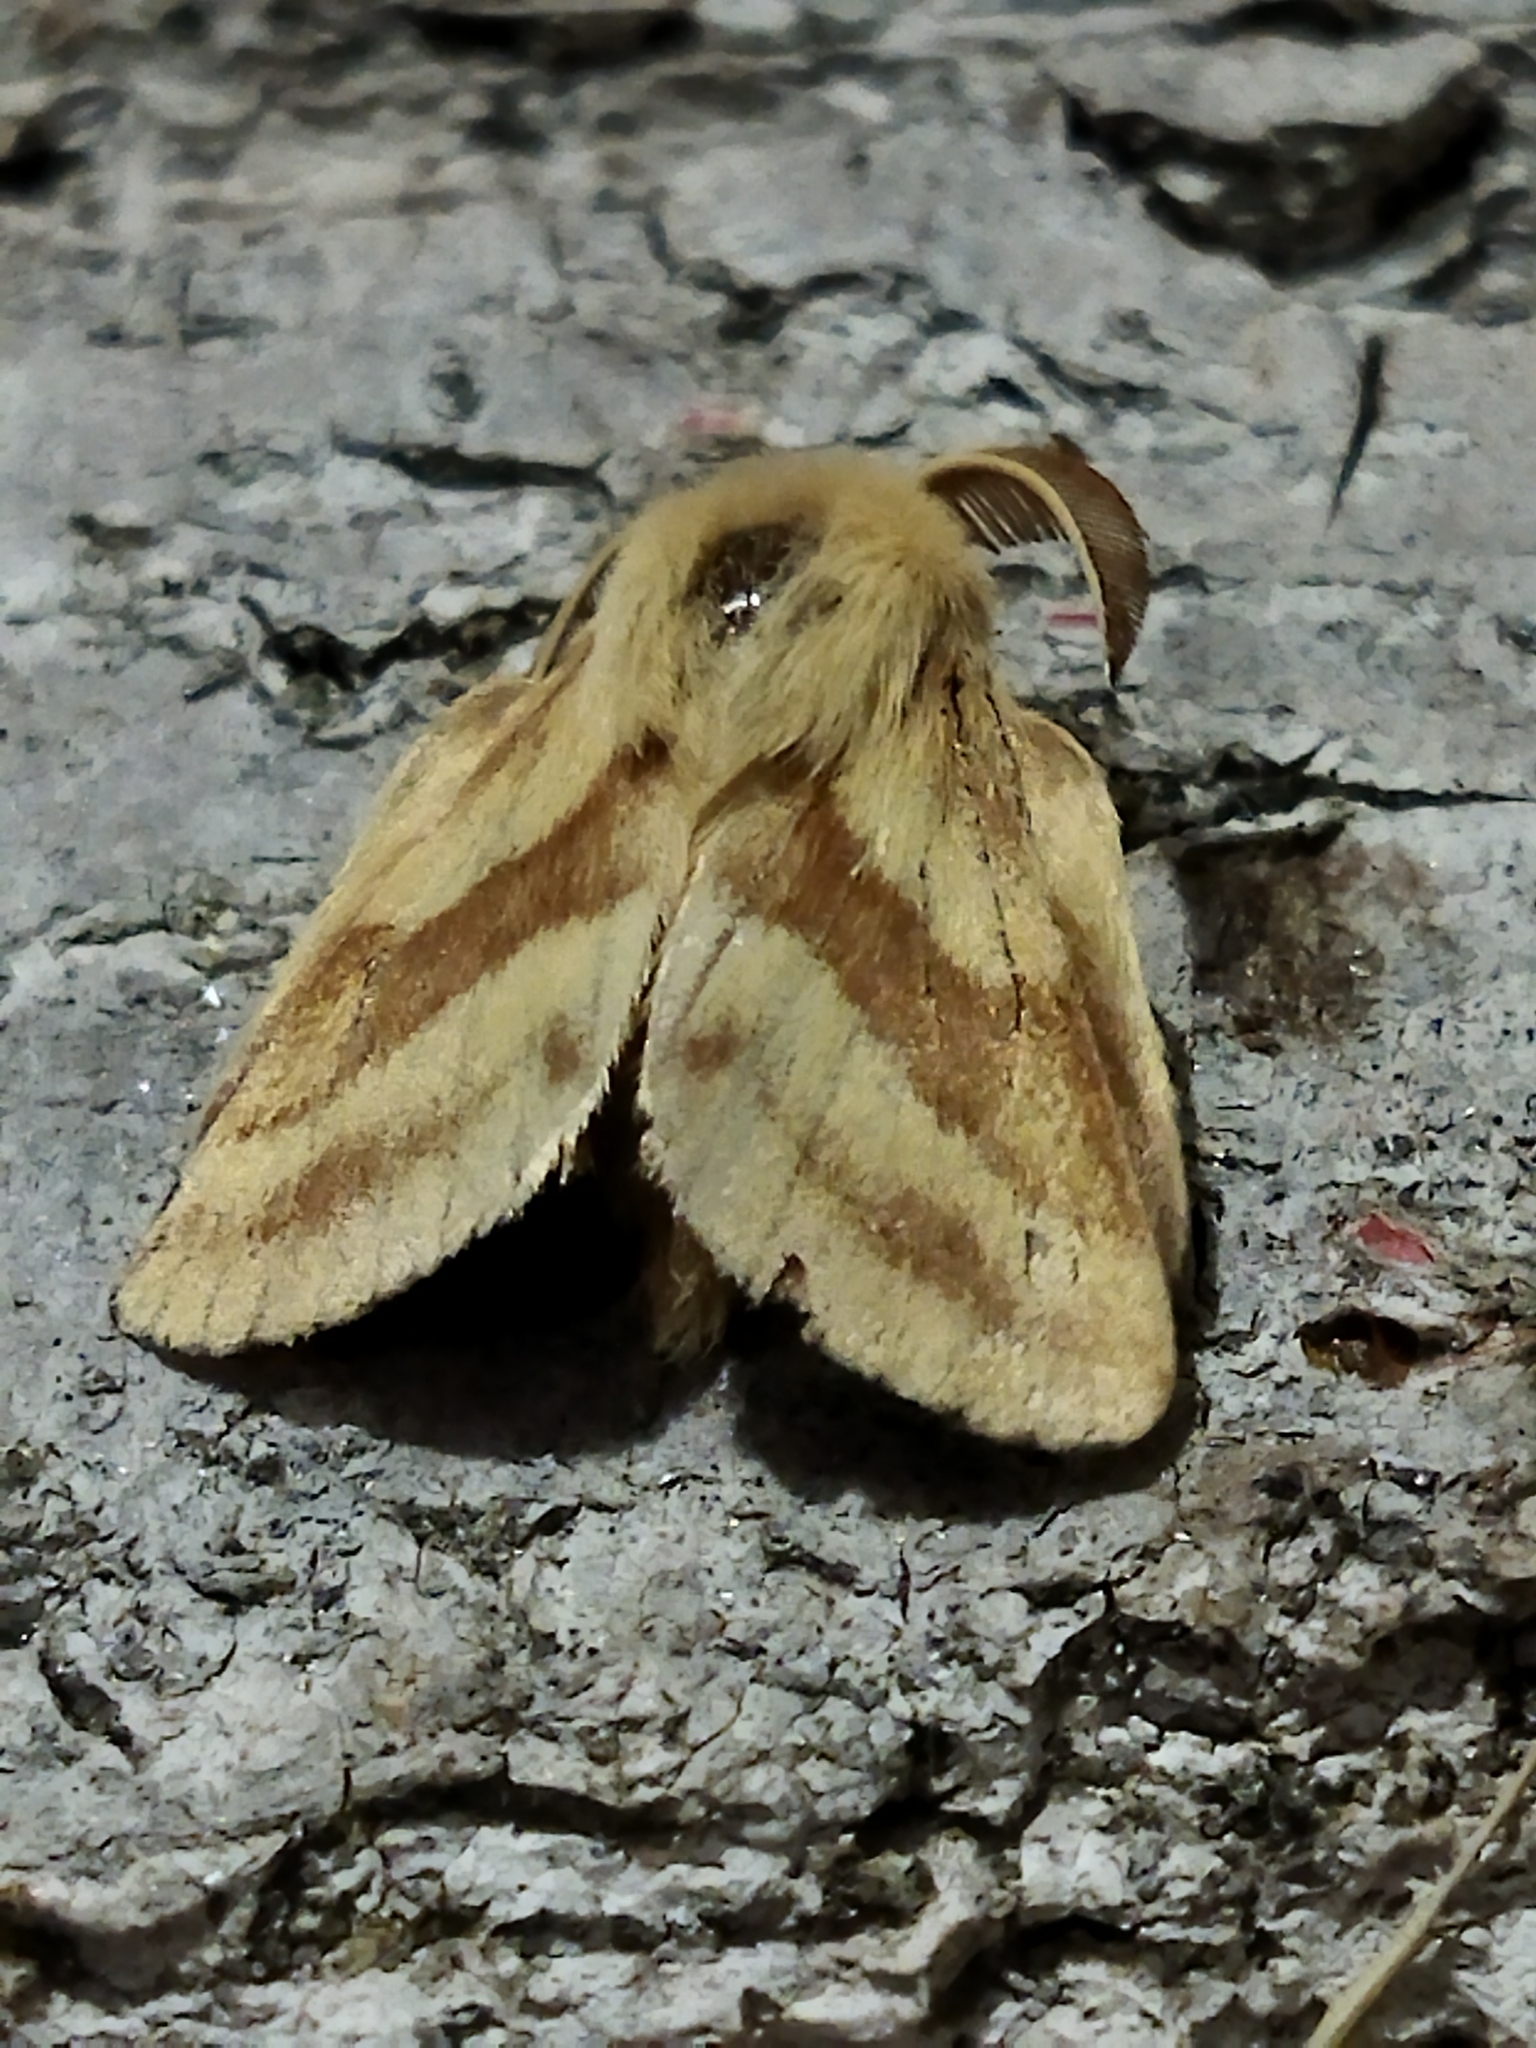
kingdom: Animalia
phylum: Arthropoda
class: Insecta
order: Lepidoptera
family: Lasiocampidae
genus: Malacosoma
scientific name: Malacosoma castrense
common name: Ground lackey
